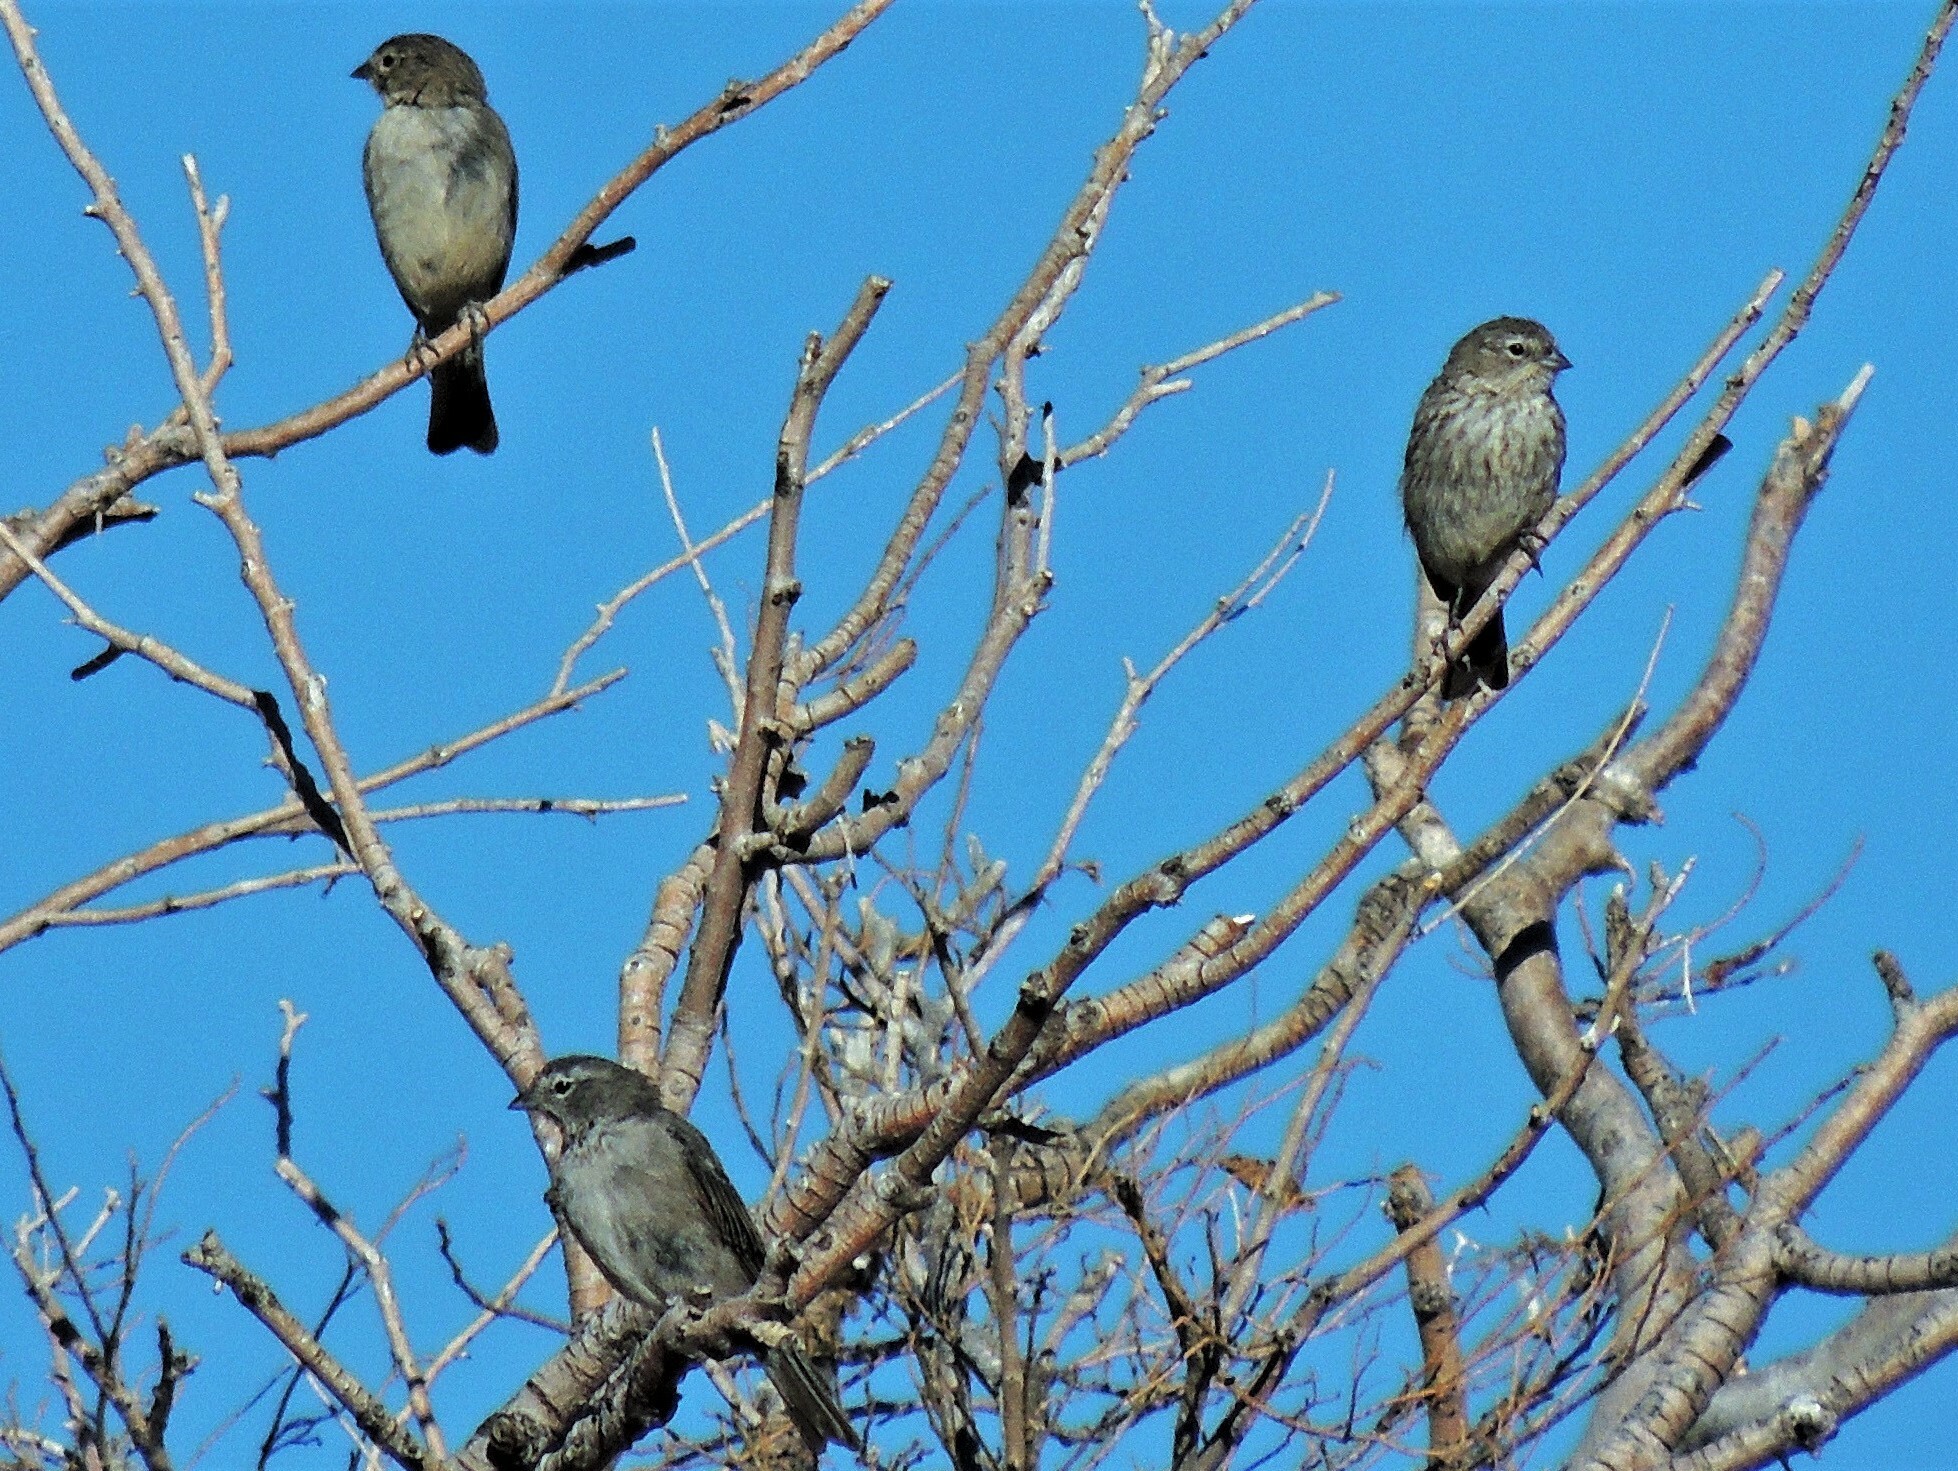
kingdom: Animalia
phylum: Chordata
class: Aves
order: Passeriformes
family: Thraupidae
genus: Geospizopsis
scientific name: Geospizopsis plebejus
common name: Ash-breasted sierra-finch
